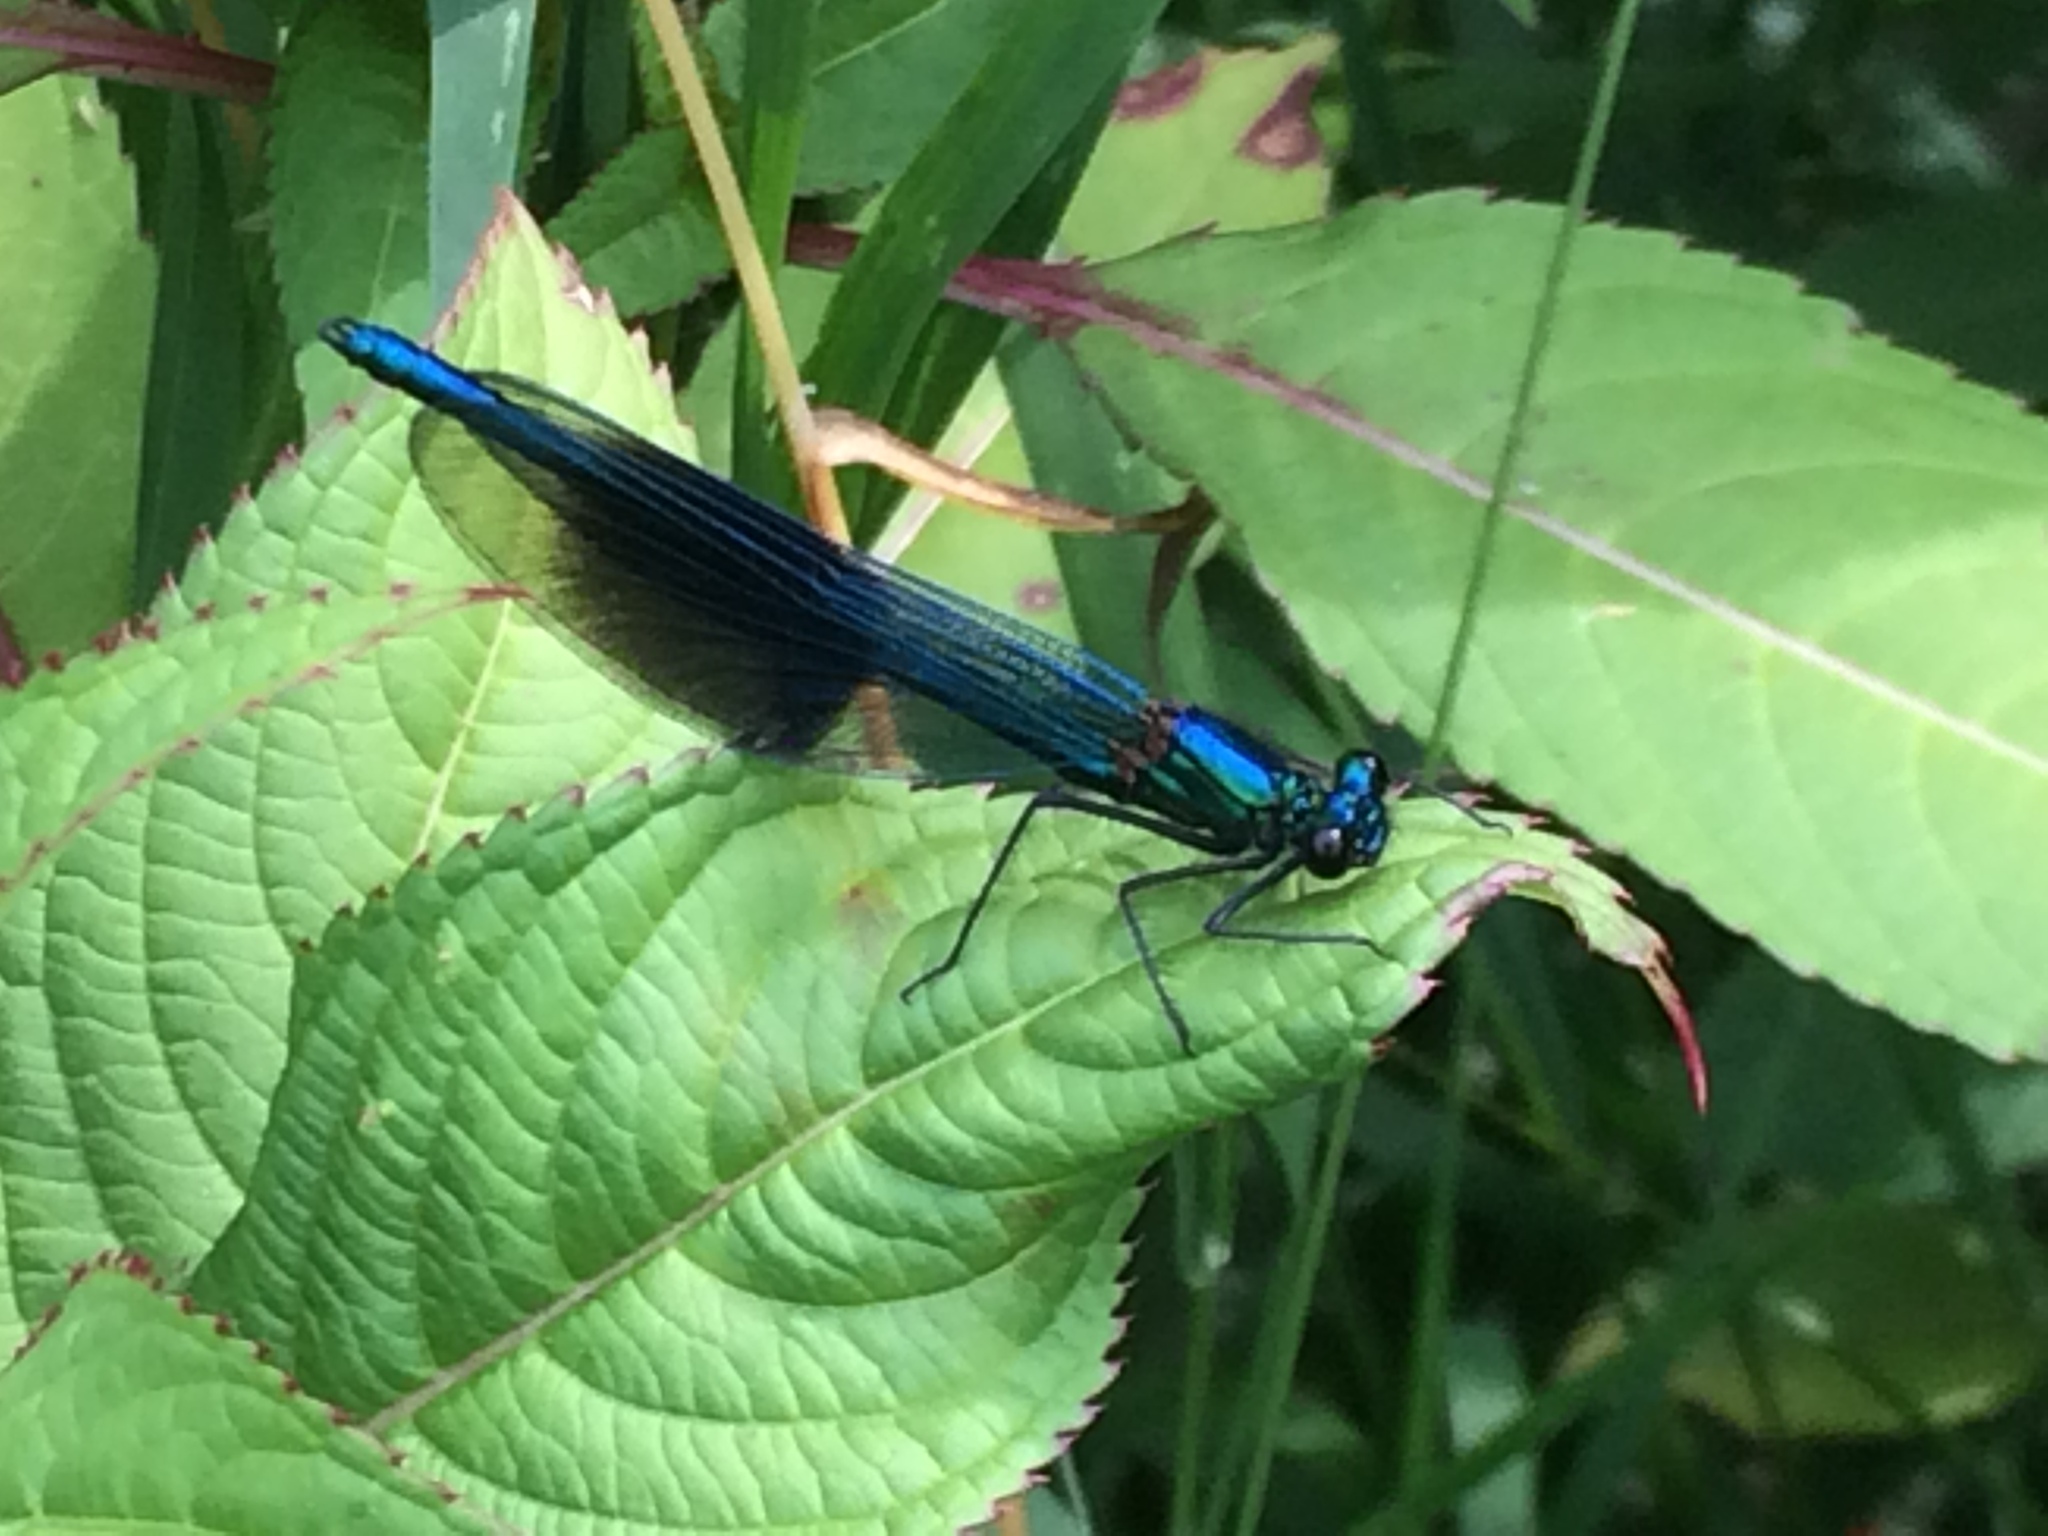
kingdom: Animalia
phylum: Arthropoda
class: Insecta
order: Odonata
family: Calopterygidae
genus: Calopteryx
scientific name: Calopteryx splendens
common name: Banded demoiselle
